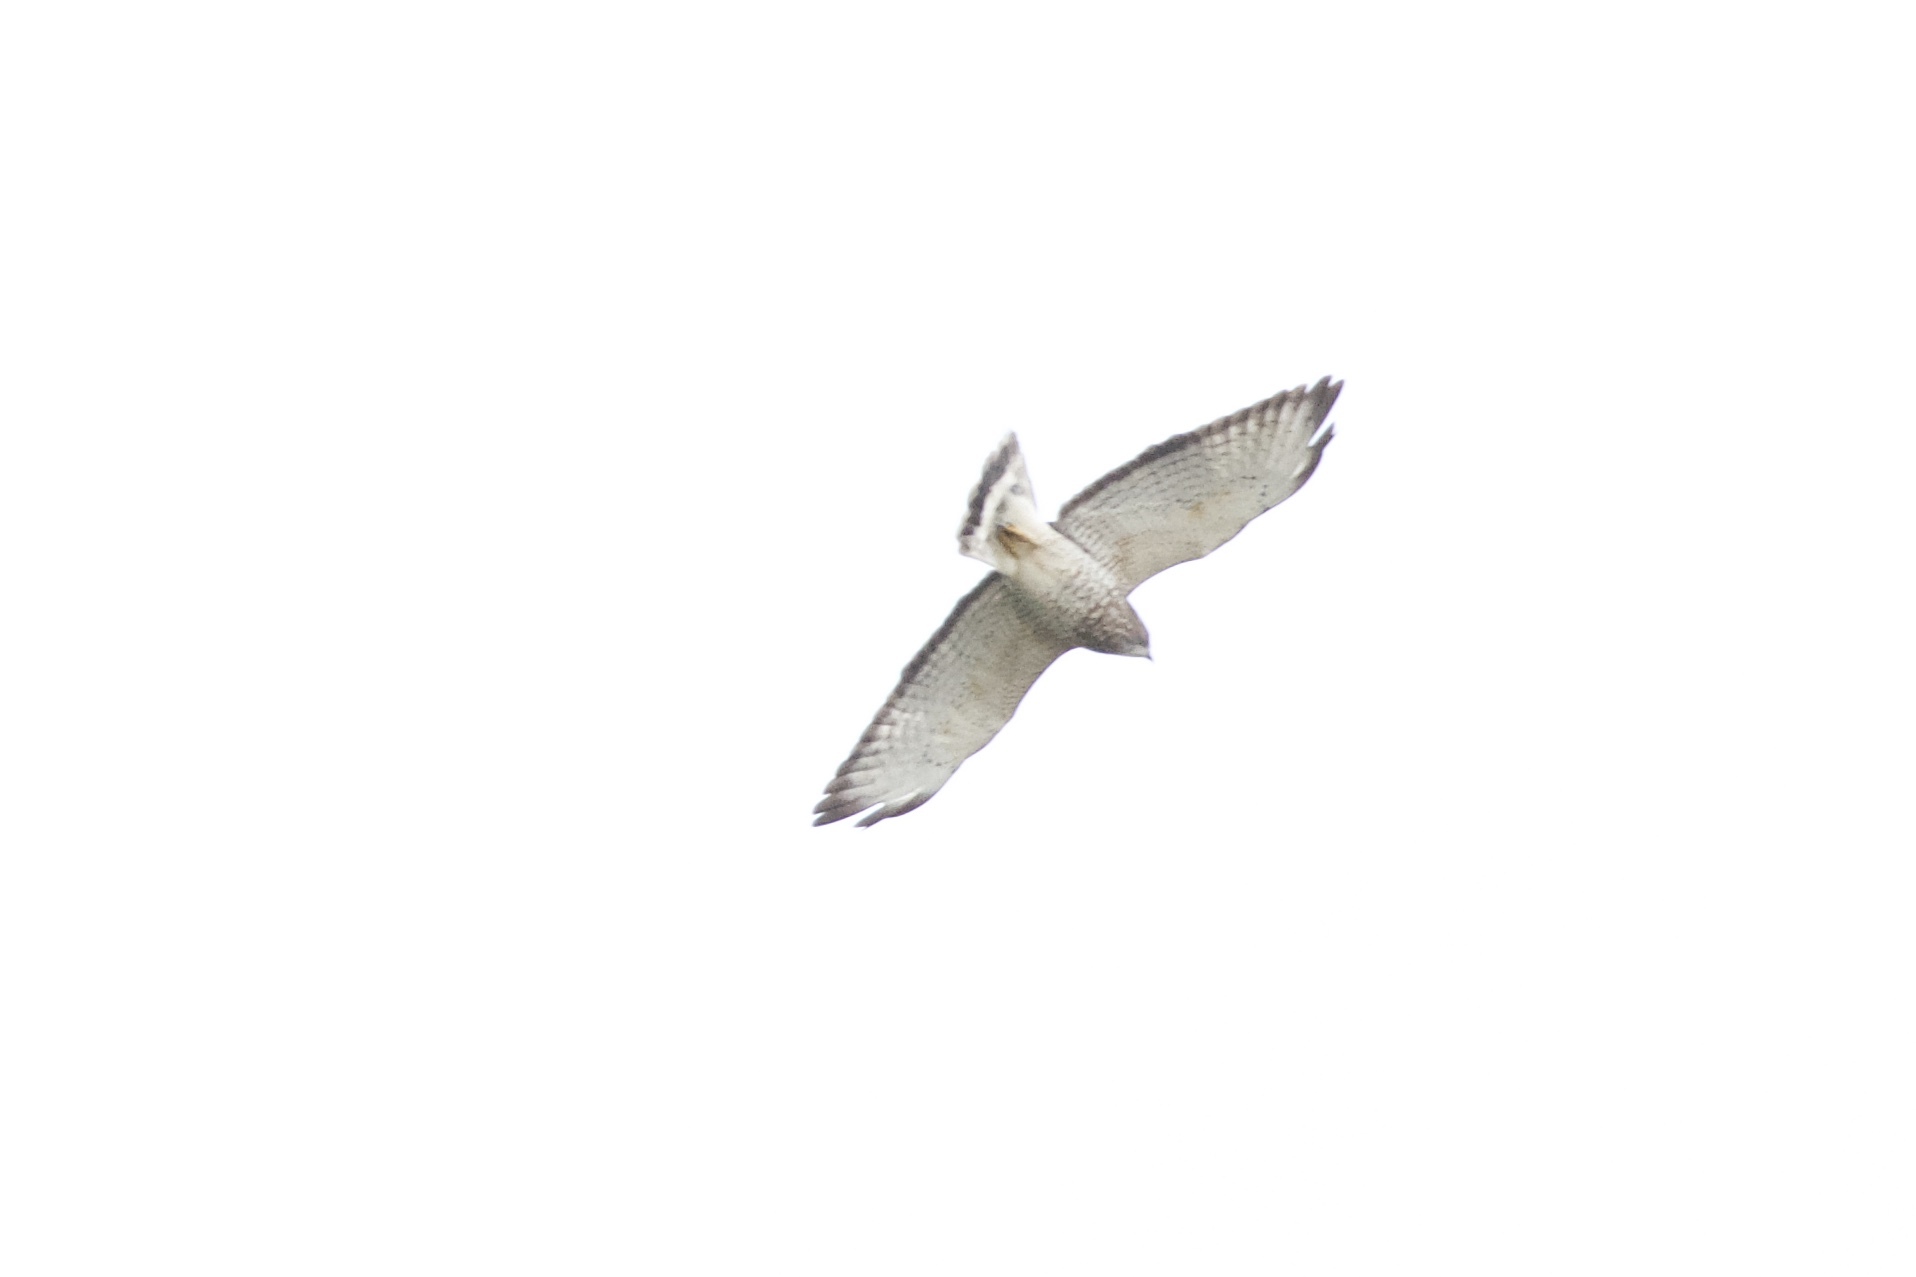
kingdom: Animalia
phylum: Chordata
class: Aves
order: Accipitriformes
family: Accipitridae
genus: Buteo
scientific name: Buteo platypterus
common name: Broad-winged hawk
